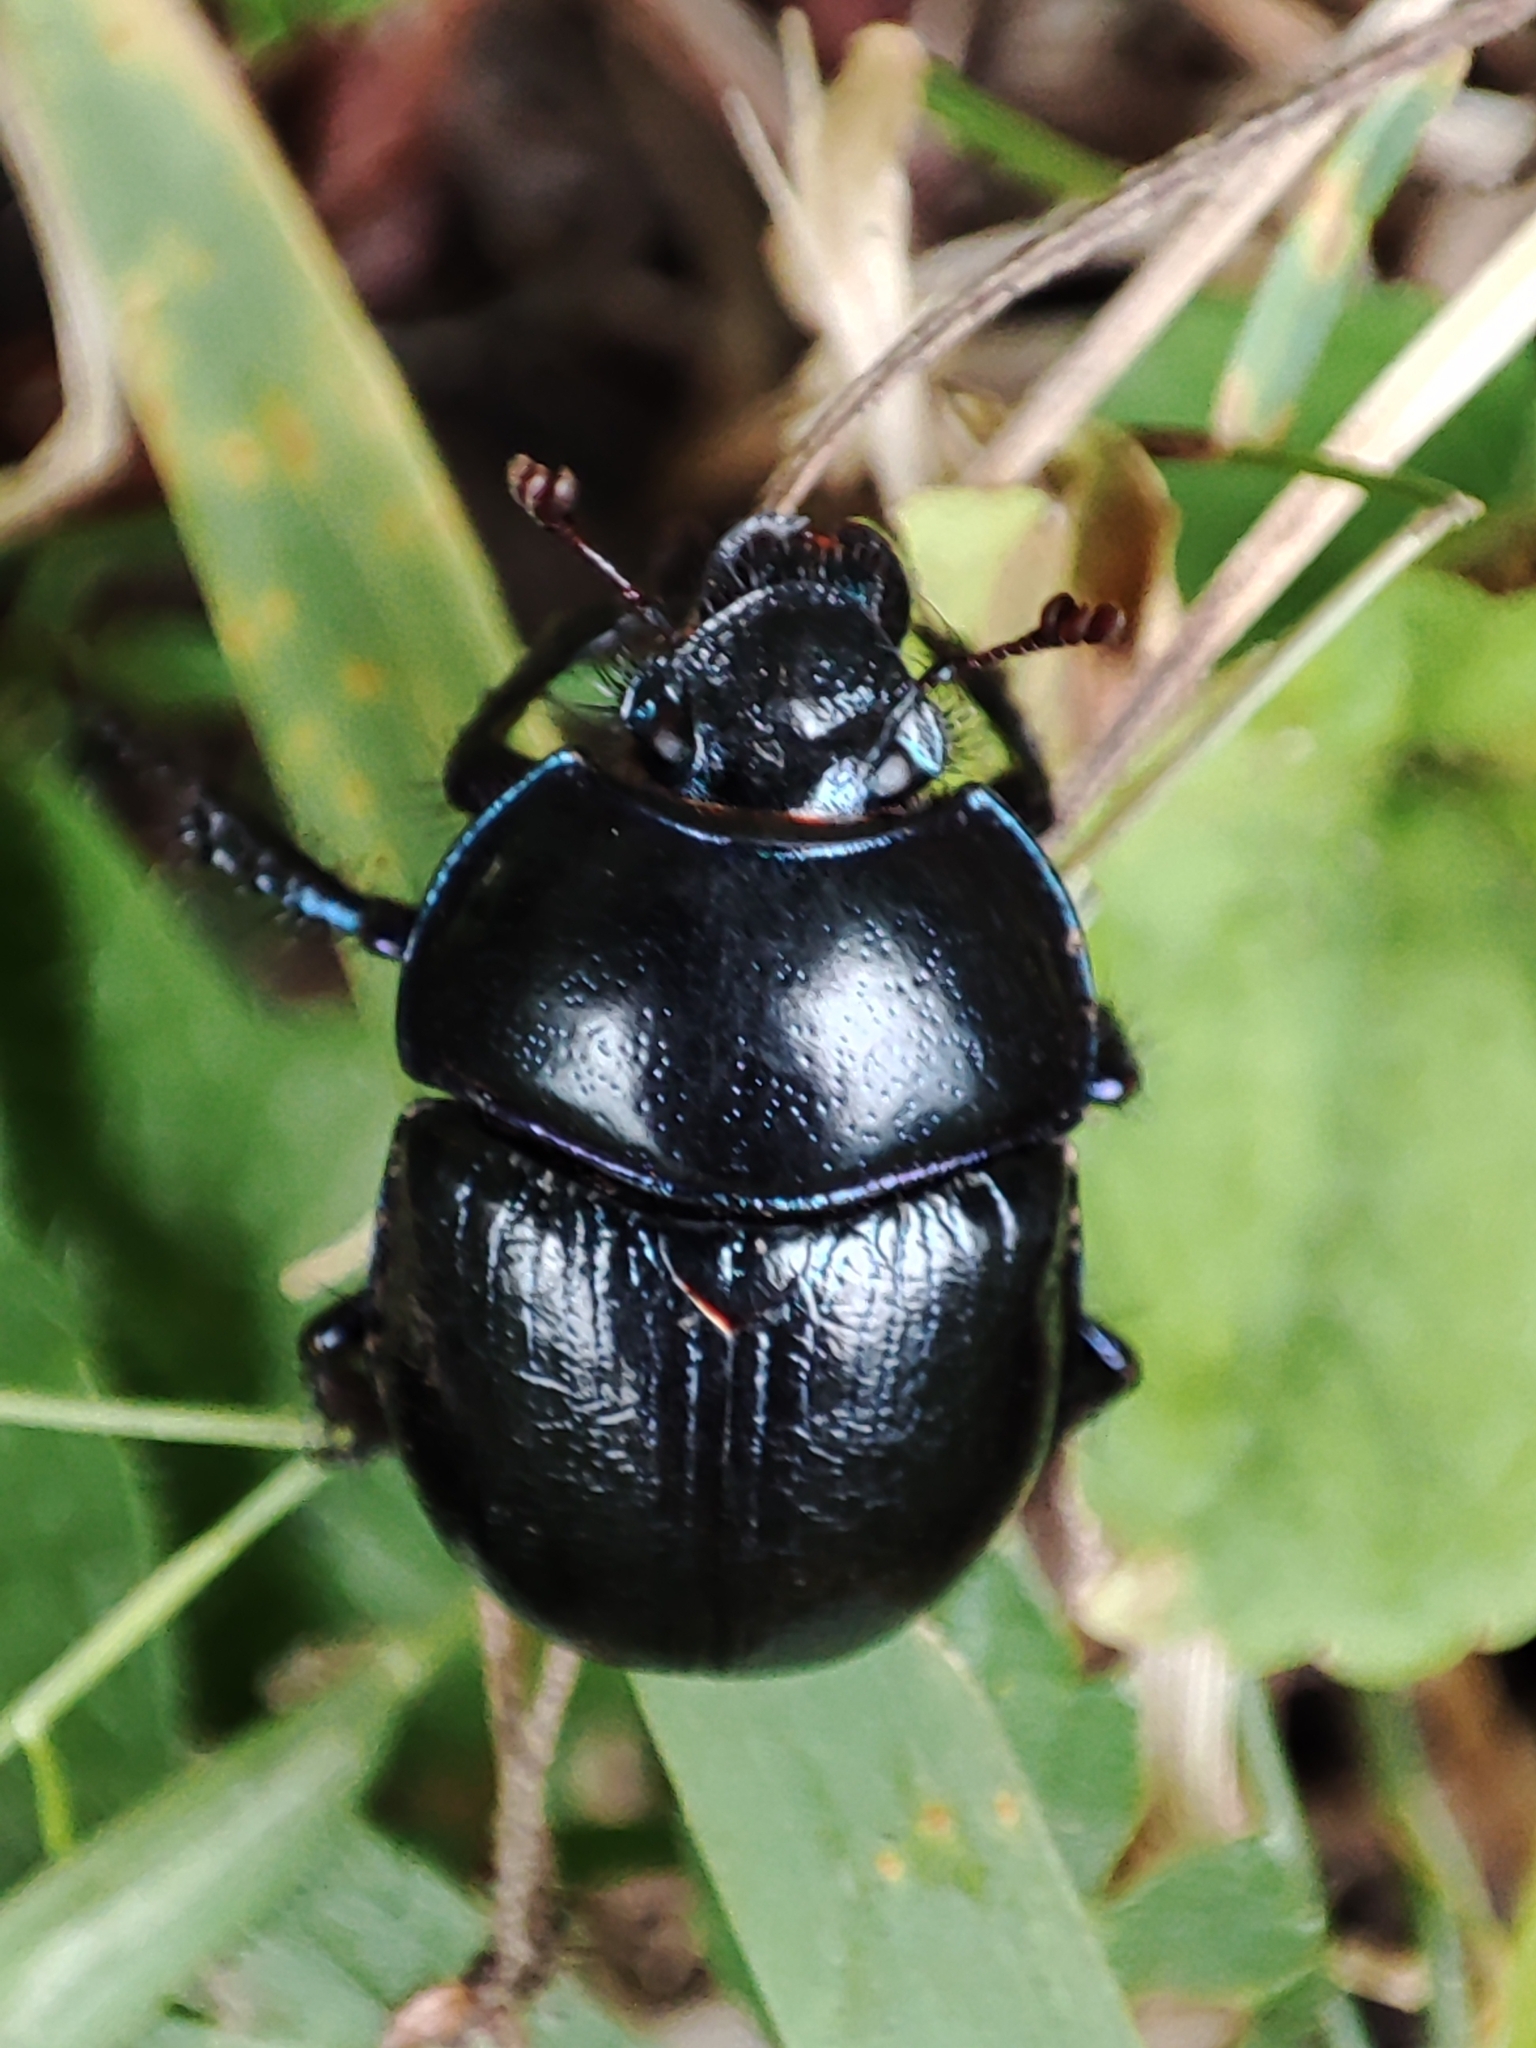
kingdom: Animalia
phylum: Arthropoda
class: Insecta
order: Coleoptera
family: Geotrupidae
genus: Anoplotrupes
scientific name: Anoplotrupes stercorosus
